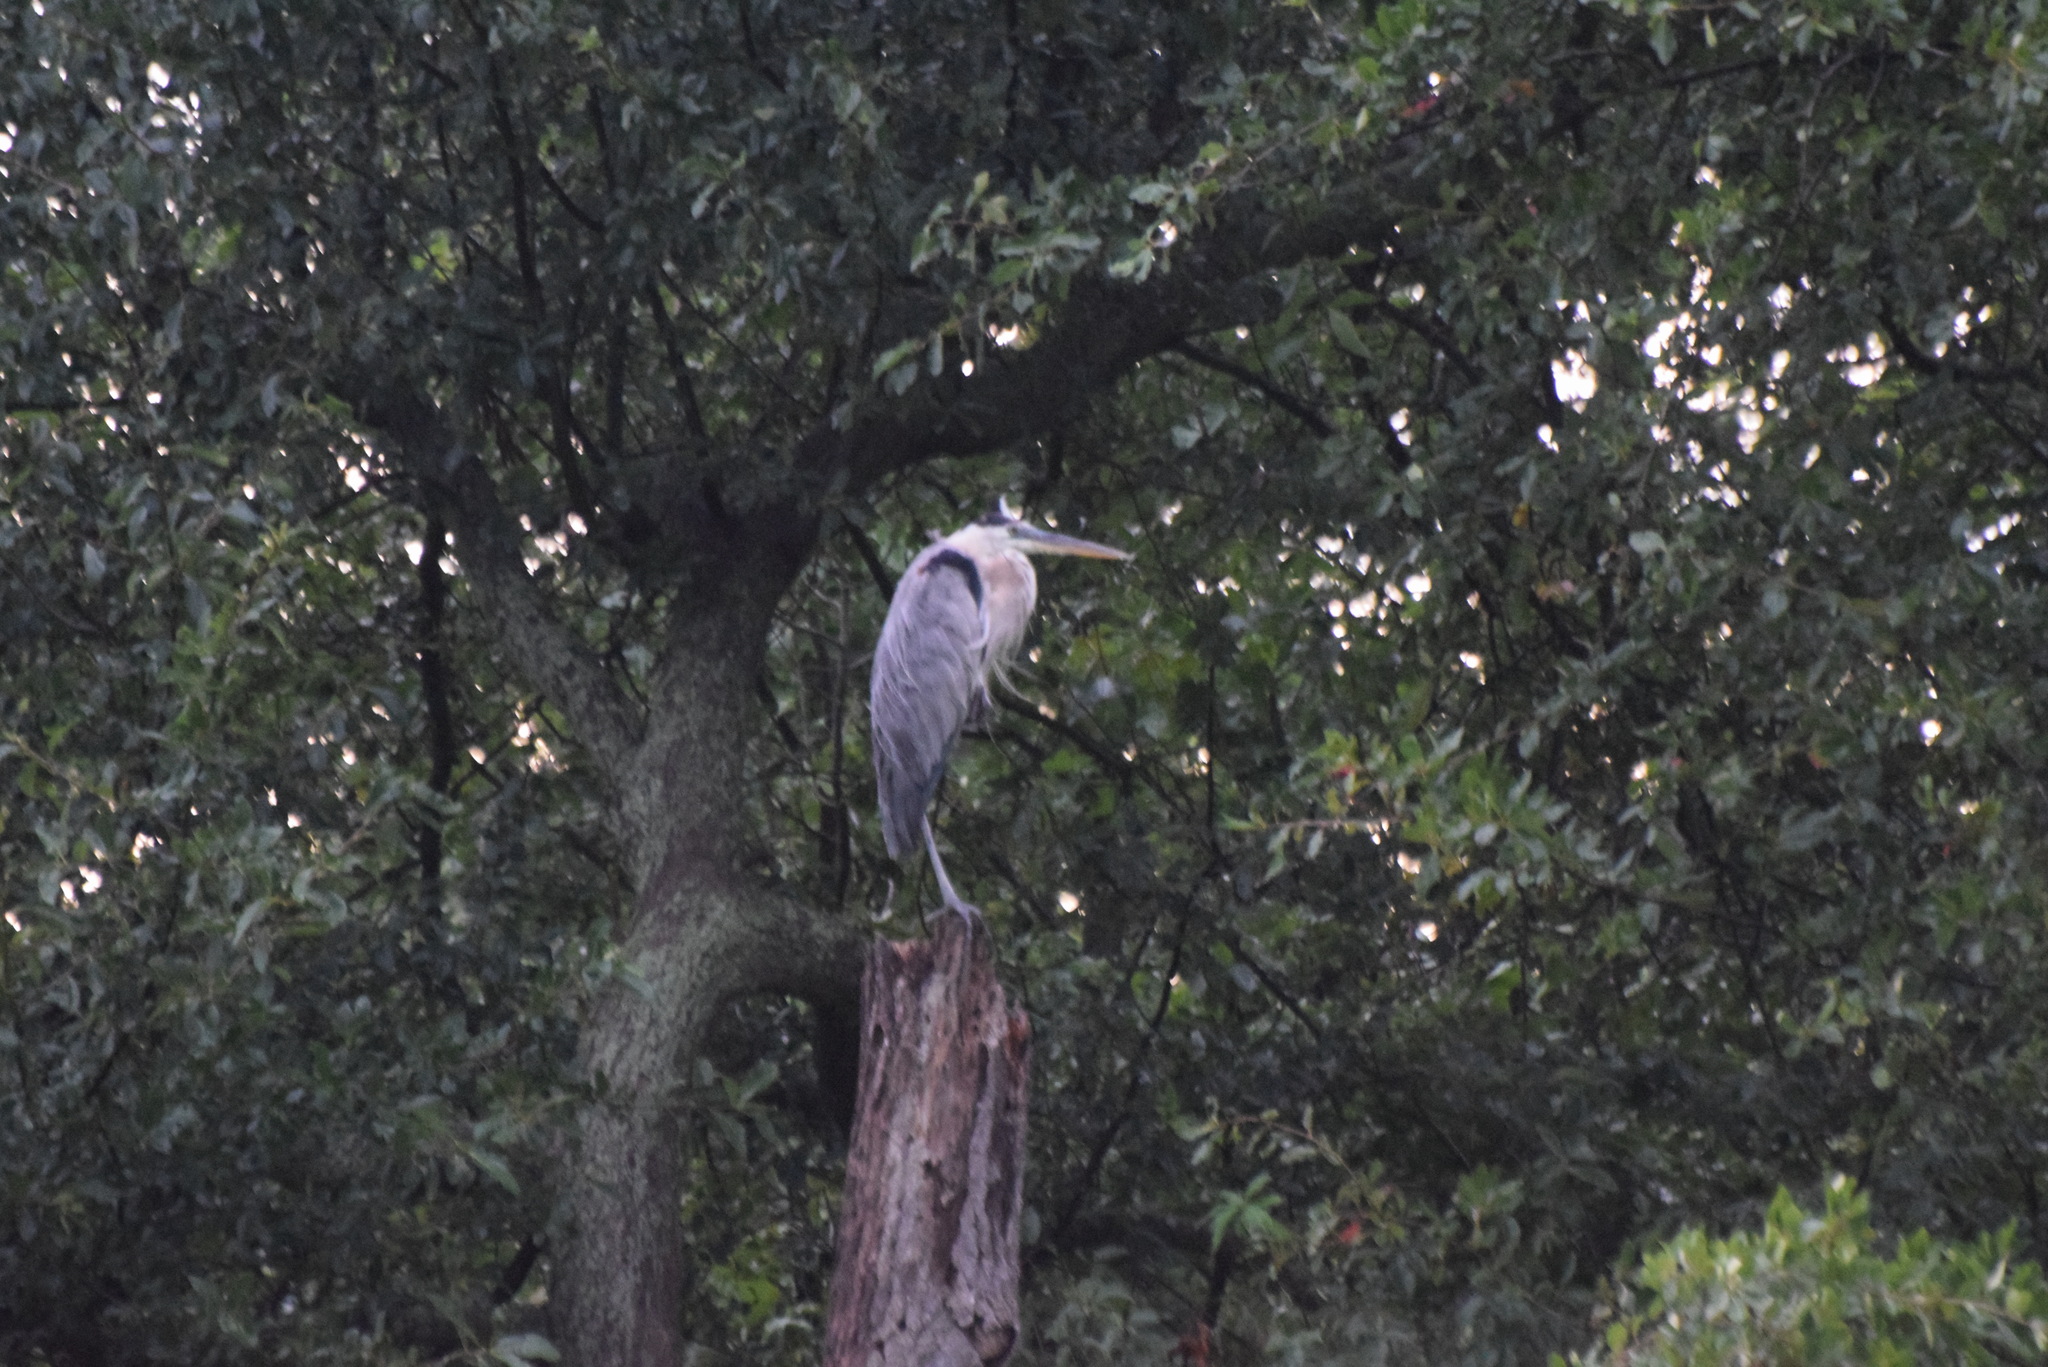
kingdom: Animalia
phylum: Chordata
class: Aves
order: Pelecaniformes
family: Ardeidae
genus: Ardea
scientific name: Ardea herodias
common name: Great blue heron
